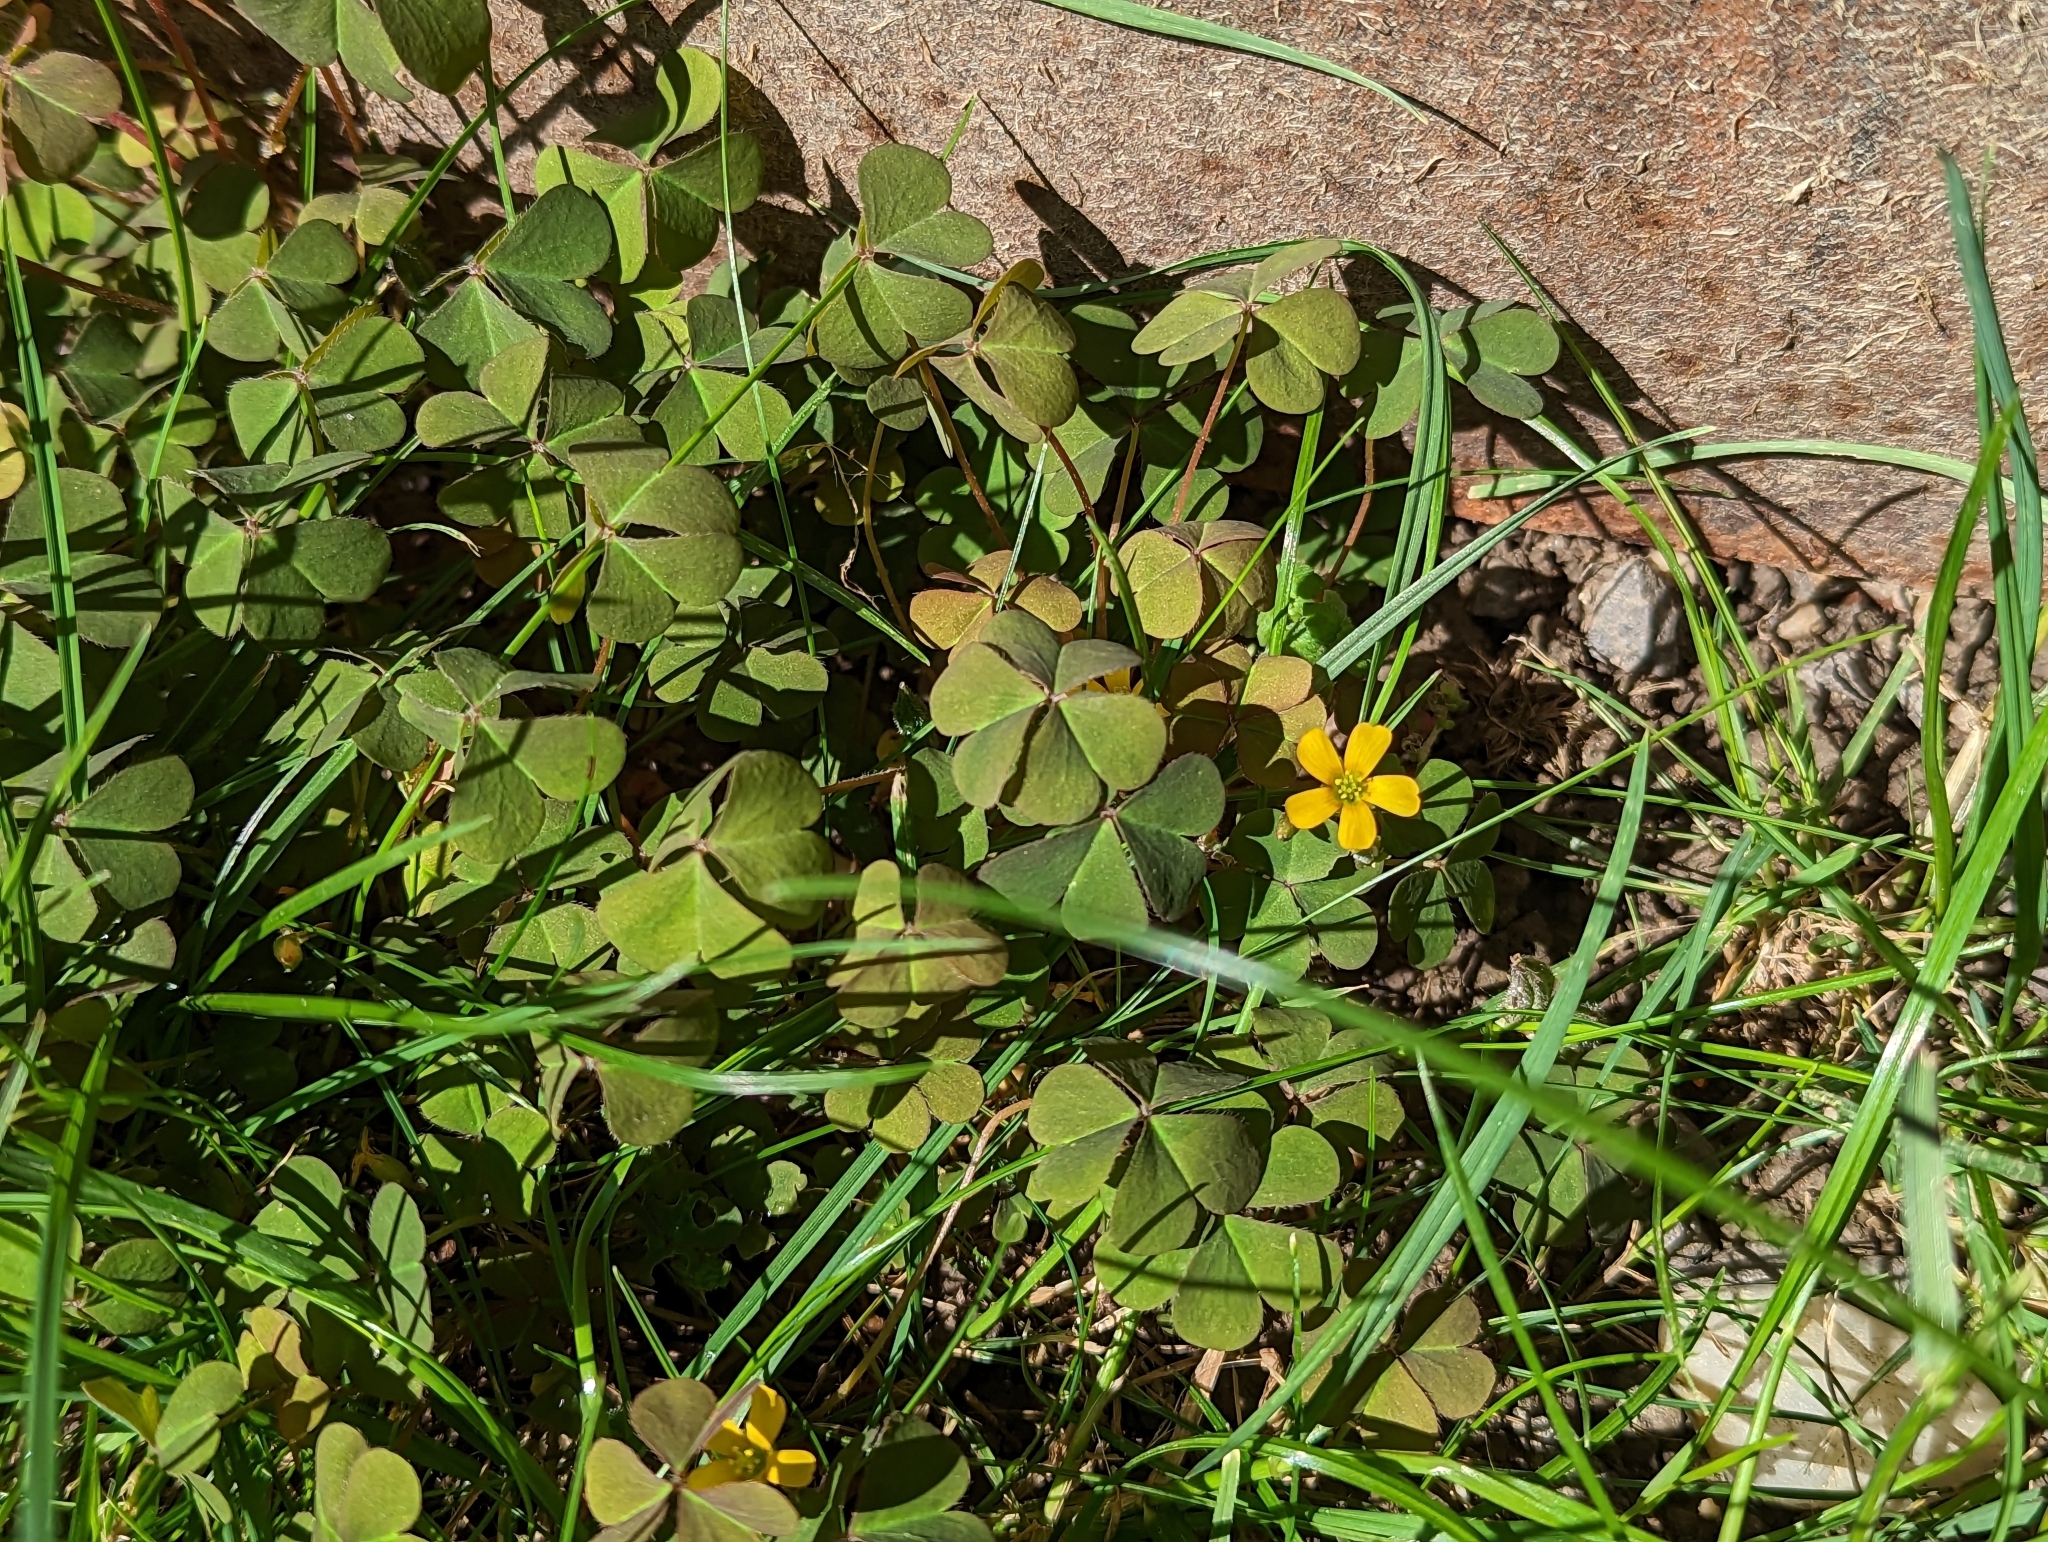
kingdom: Plantae
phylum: Tracheophyta
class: Magnoliopsida
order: Oxalidales
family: Oxalidaceae
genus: Oxalis
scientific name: Oxalis corniculata
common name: Procumbent yellow-sorrel
